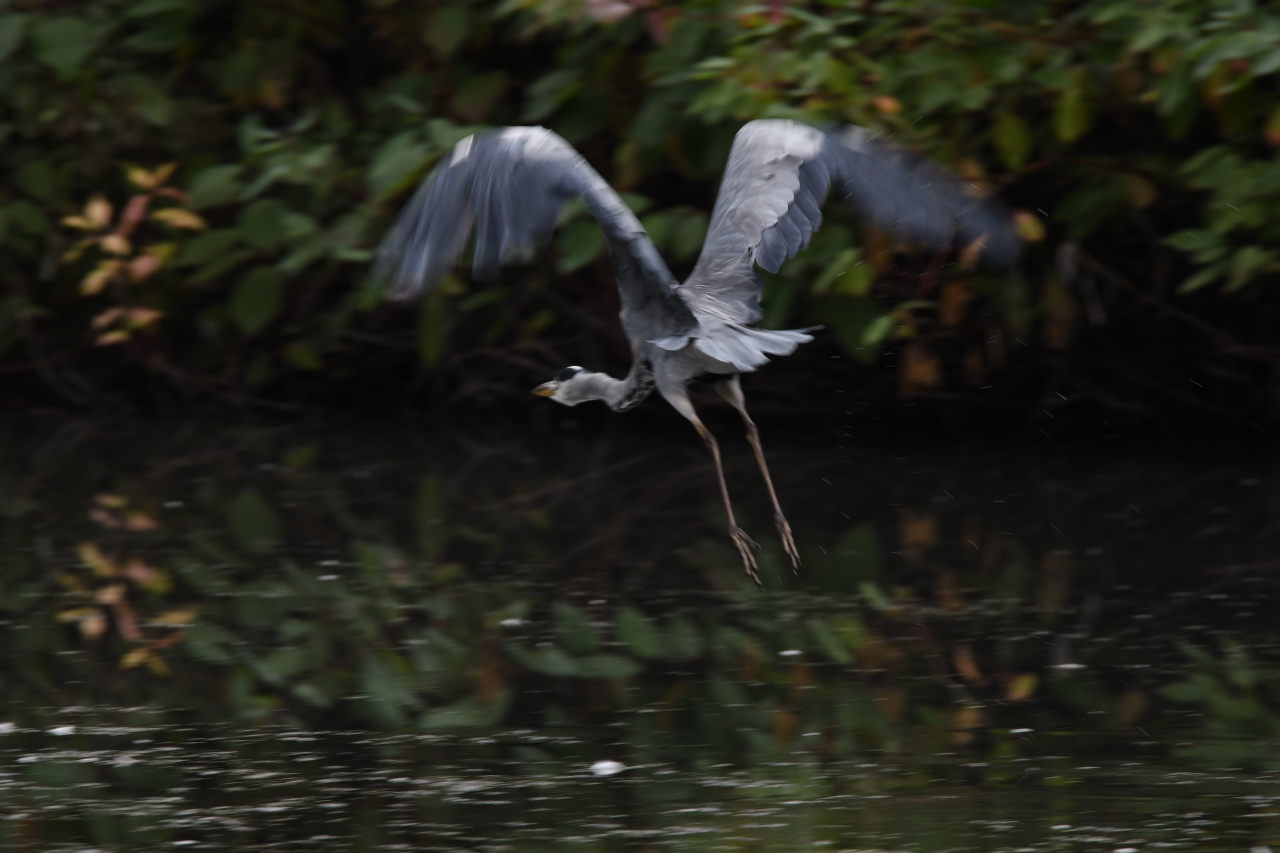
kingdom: Animalia
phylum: Chordata
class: Aves
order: Pelecaniformes
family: Ardeidae
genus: Ardea
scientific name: Ardea cinerea
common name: Grey heron
